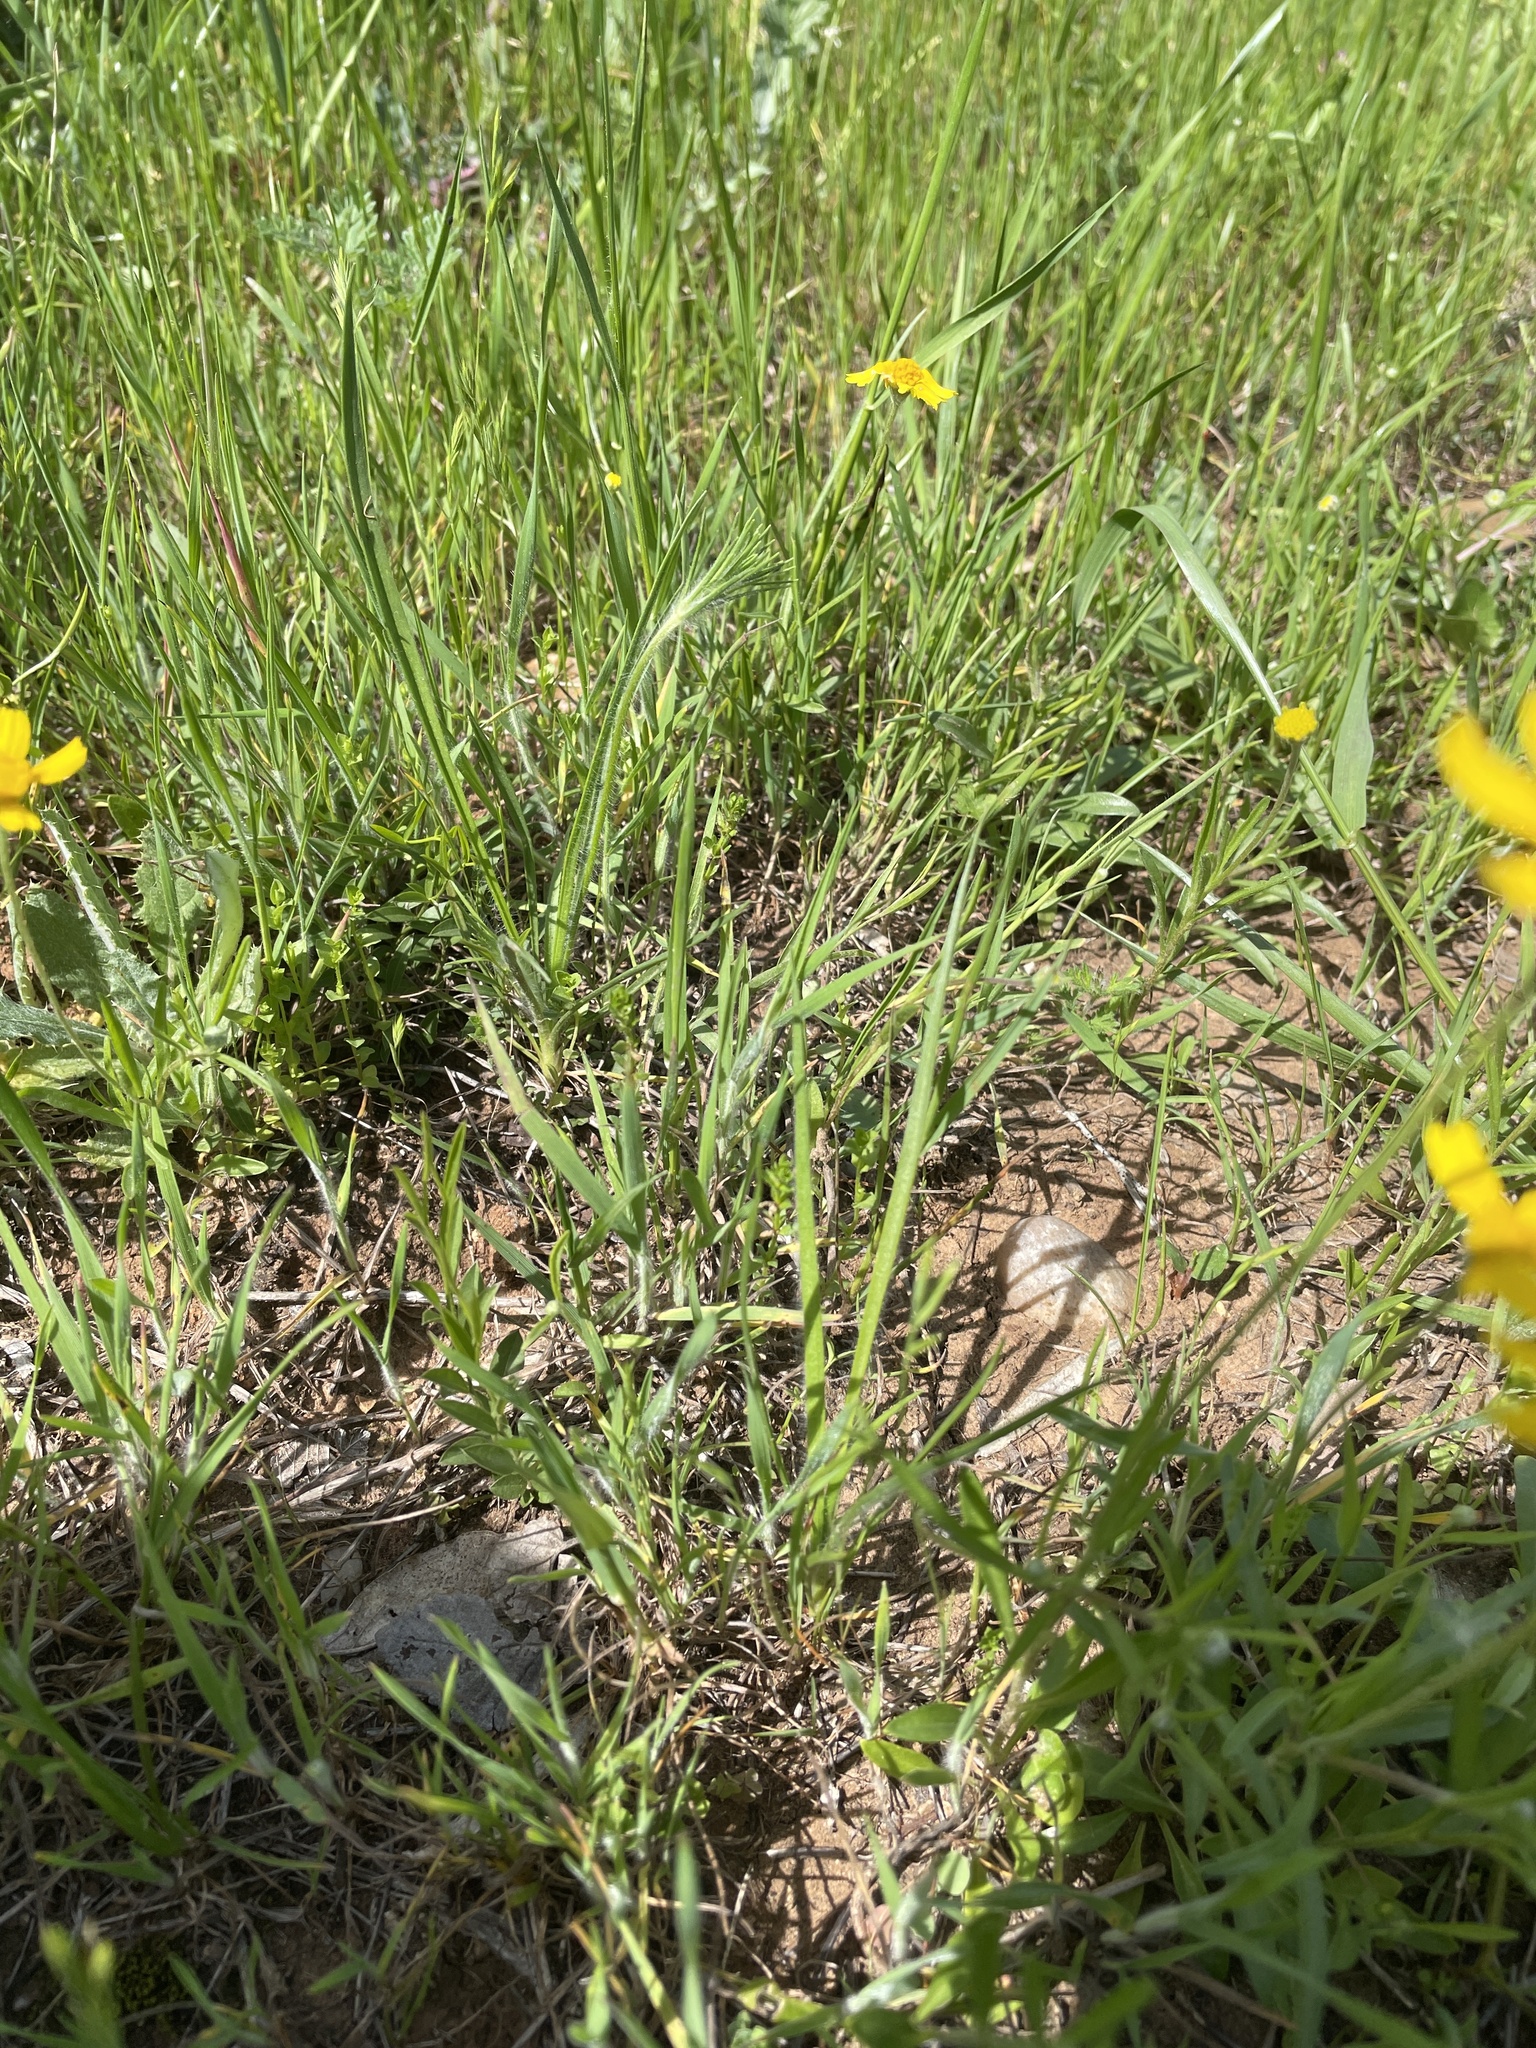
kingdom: Plantae
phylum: Tracheophyta
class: Magnoliopsida
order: Gentianales
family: Rubiaceae
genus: Galium
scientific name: Galium virgatum
